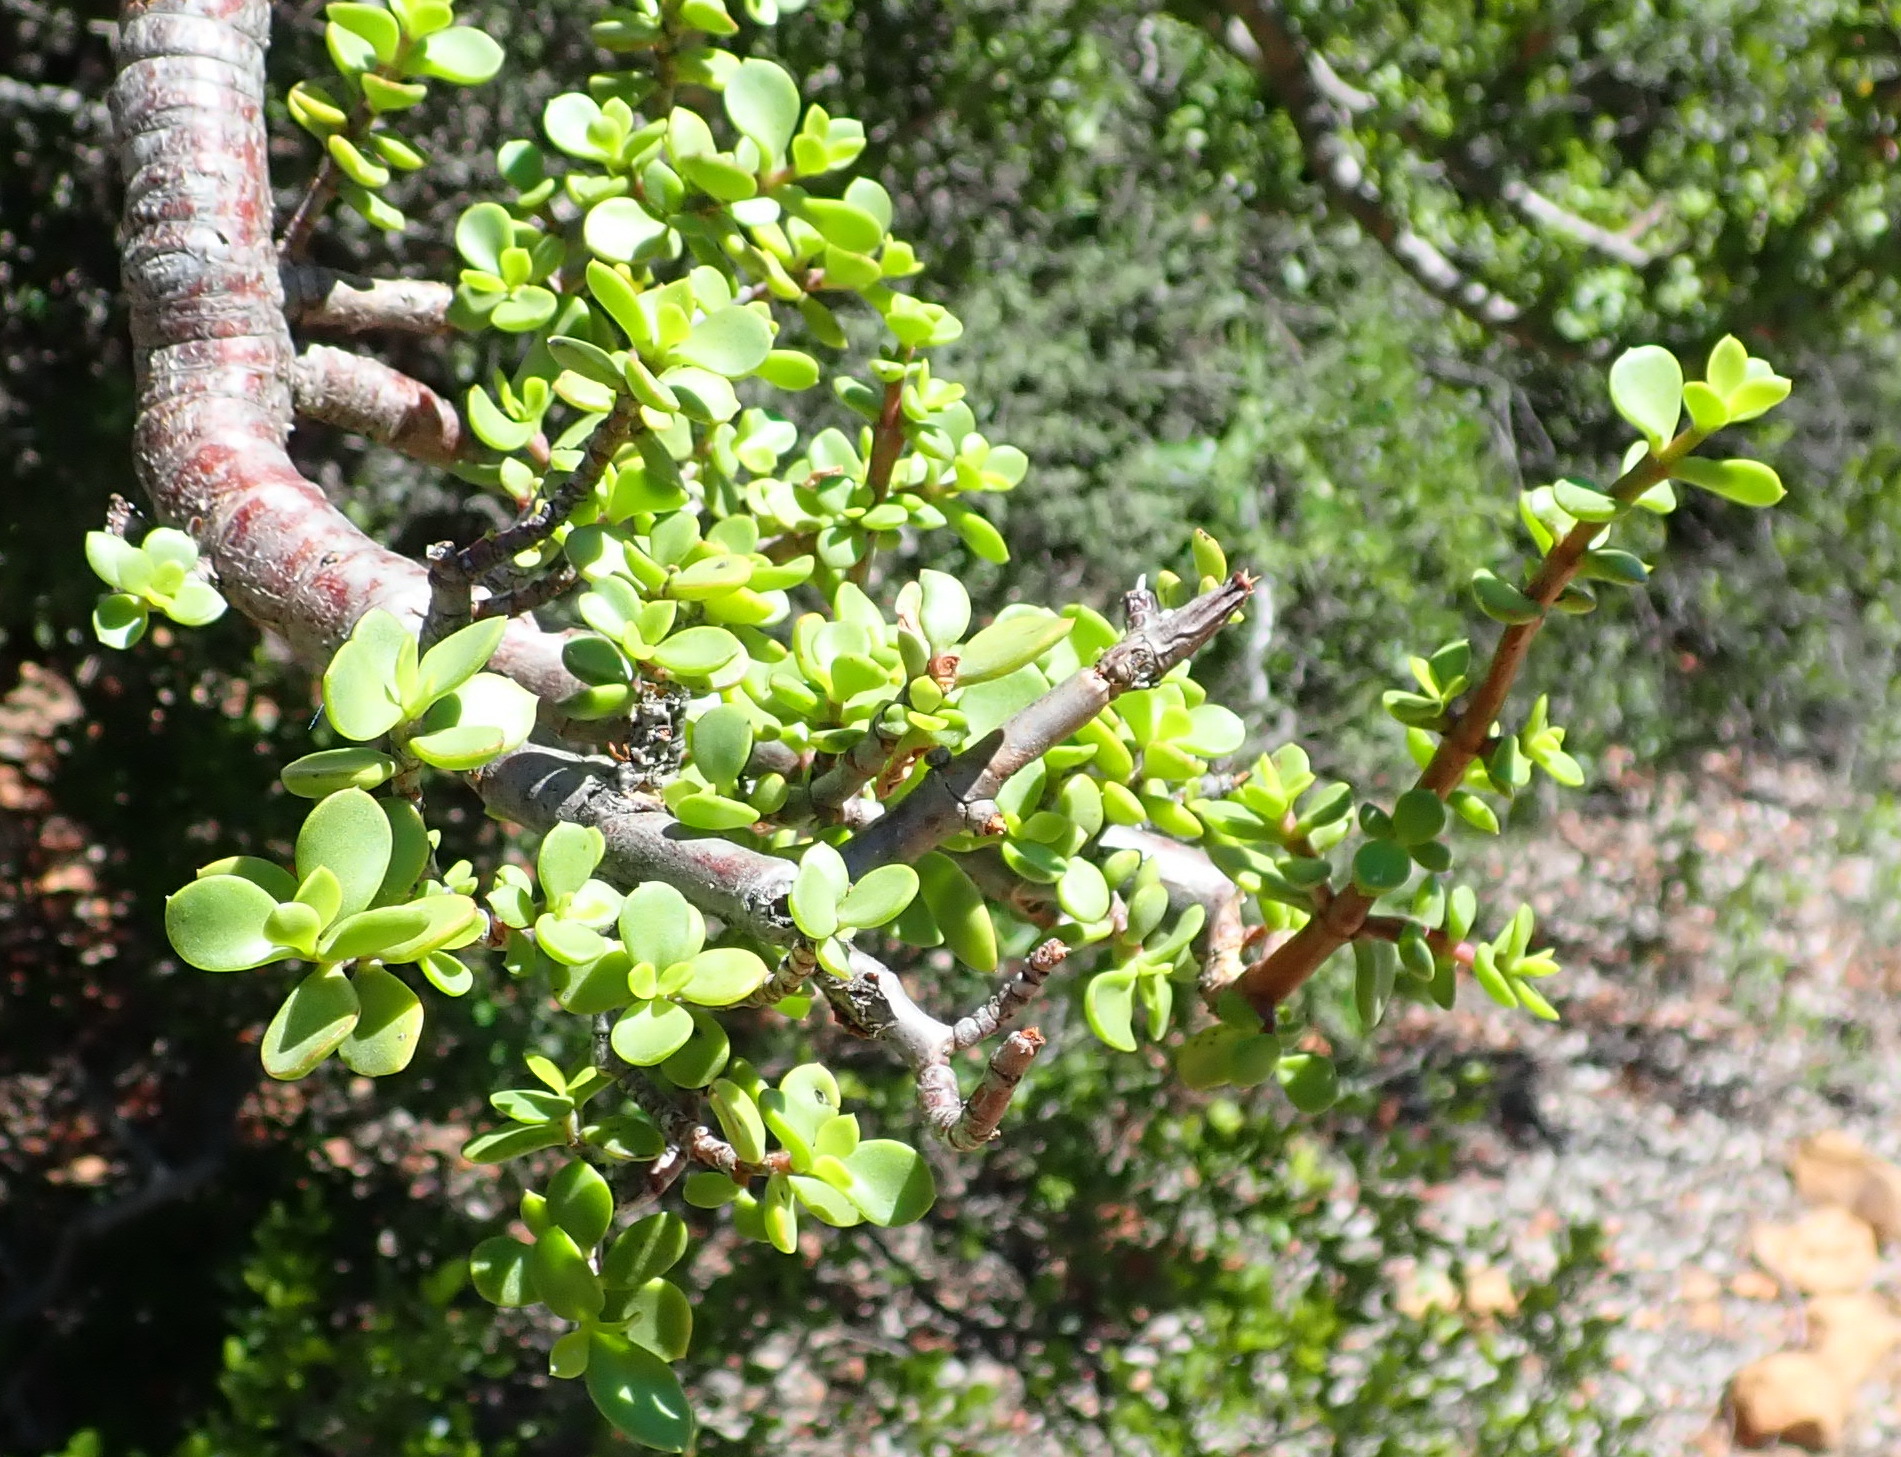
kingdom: Plantae
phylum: Tracheophyta
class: Magnoliopsida
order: Caryophyllales
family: Didiereaceae
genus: Portulacaria
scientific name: Portulacaria afra
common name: Elephant-bush
